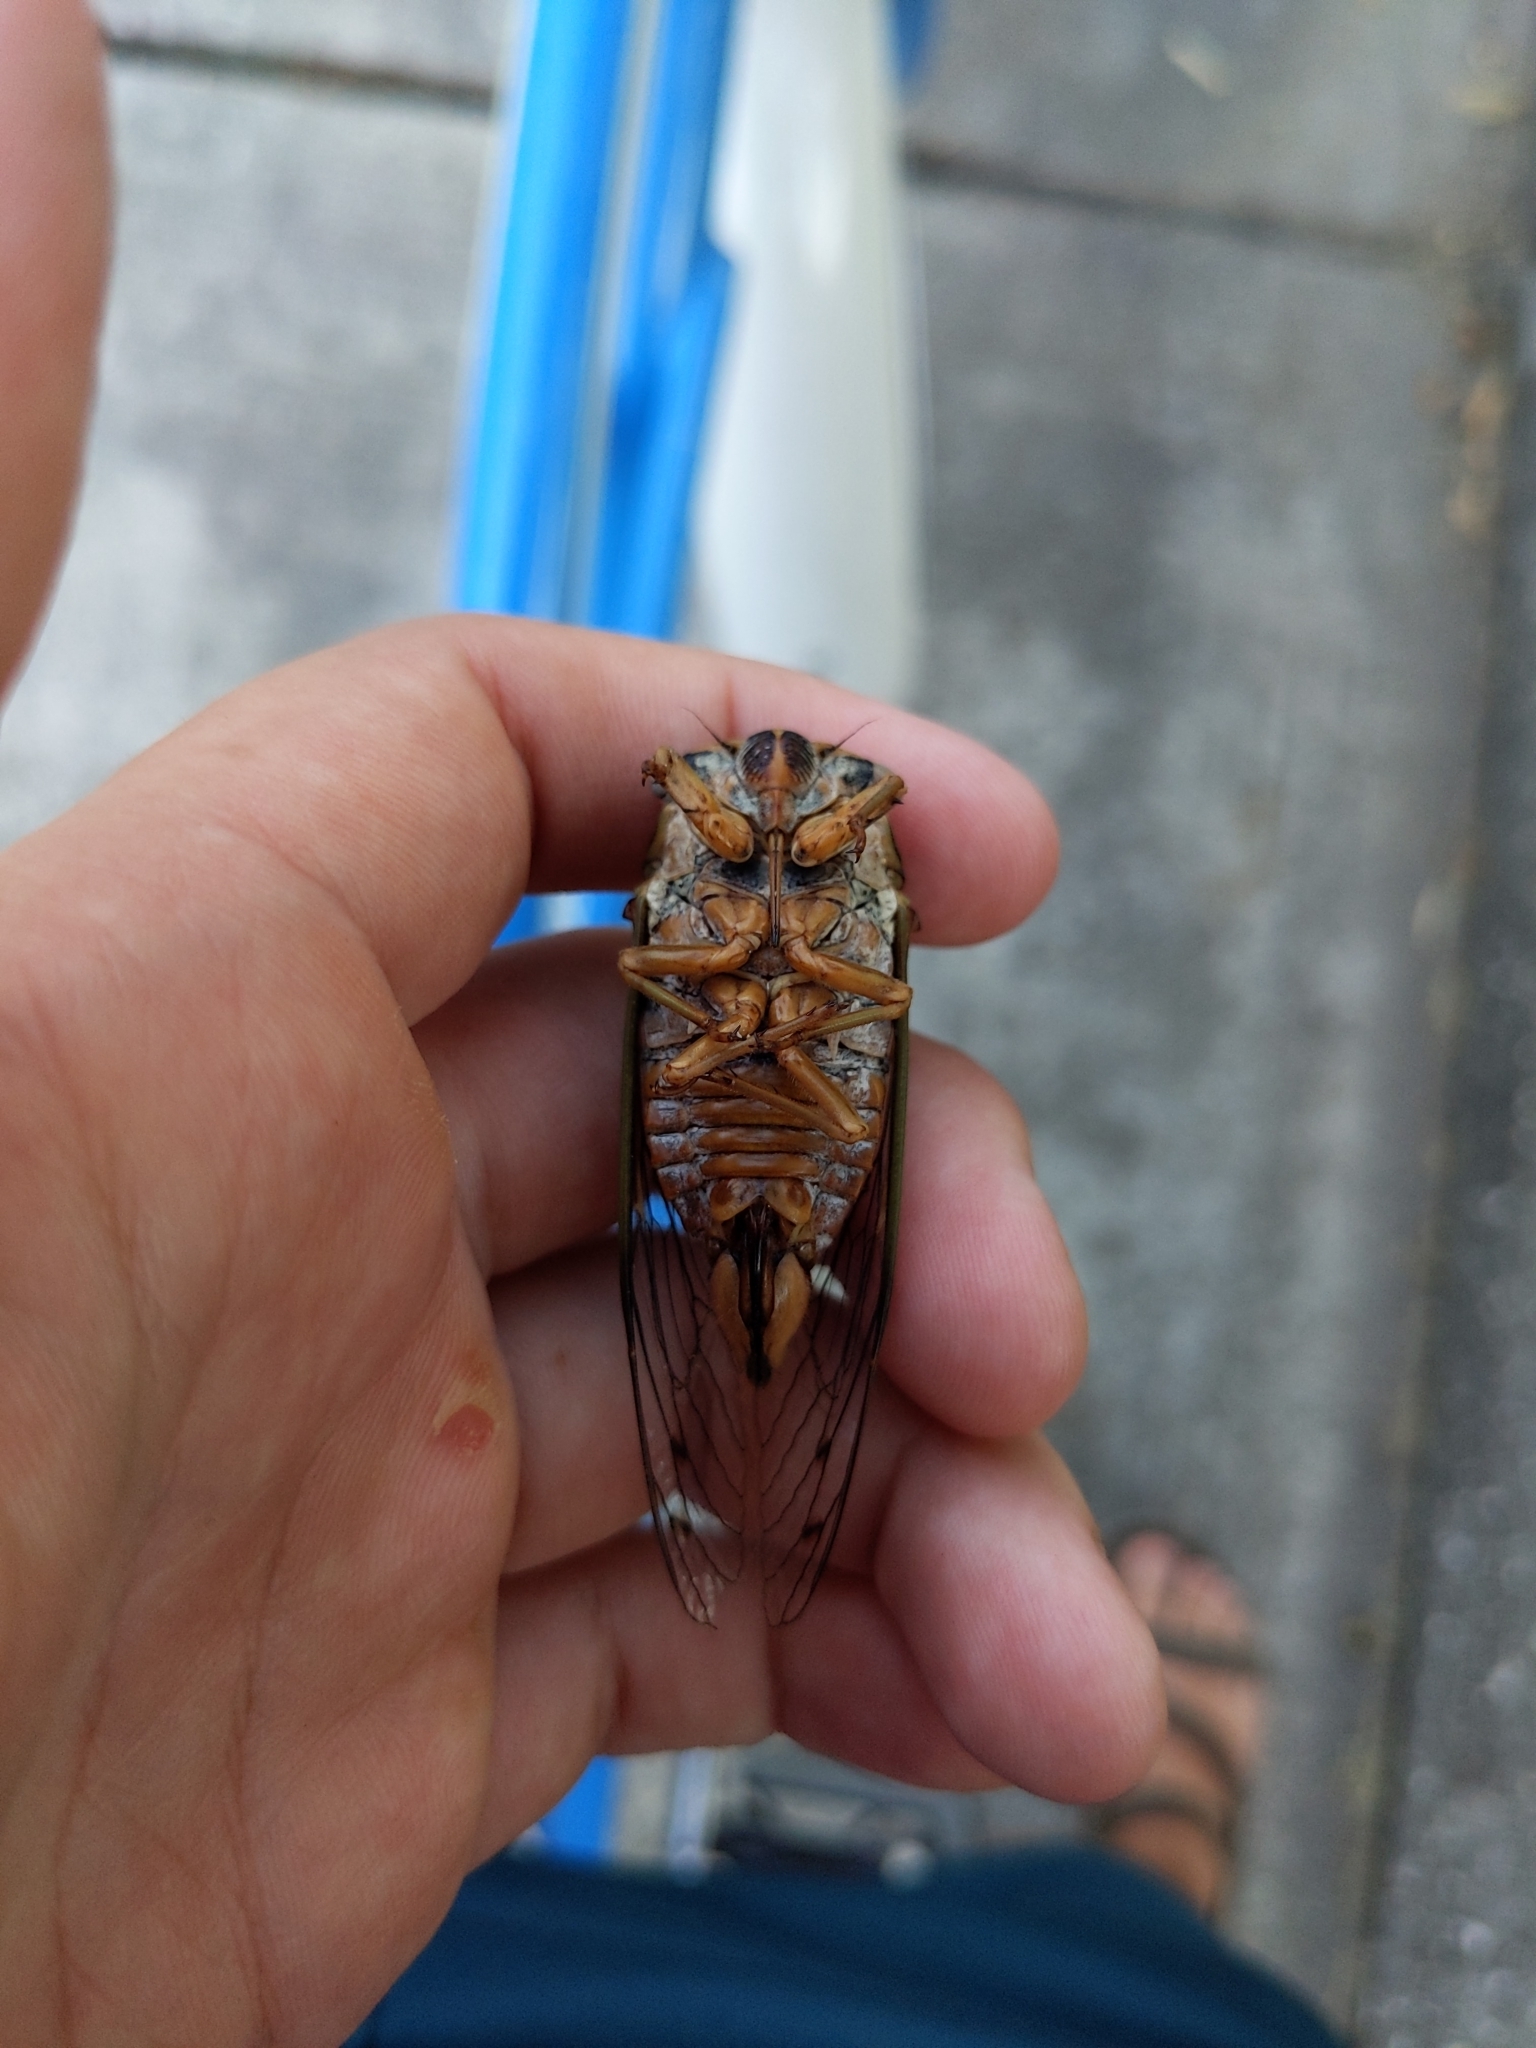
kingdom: Animalia
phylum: Arthropoda
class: Insecta
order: Hemiptera
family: Cicadidae
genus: Megatibicen
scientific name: Megatibicen resh
